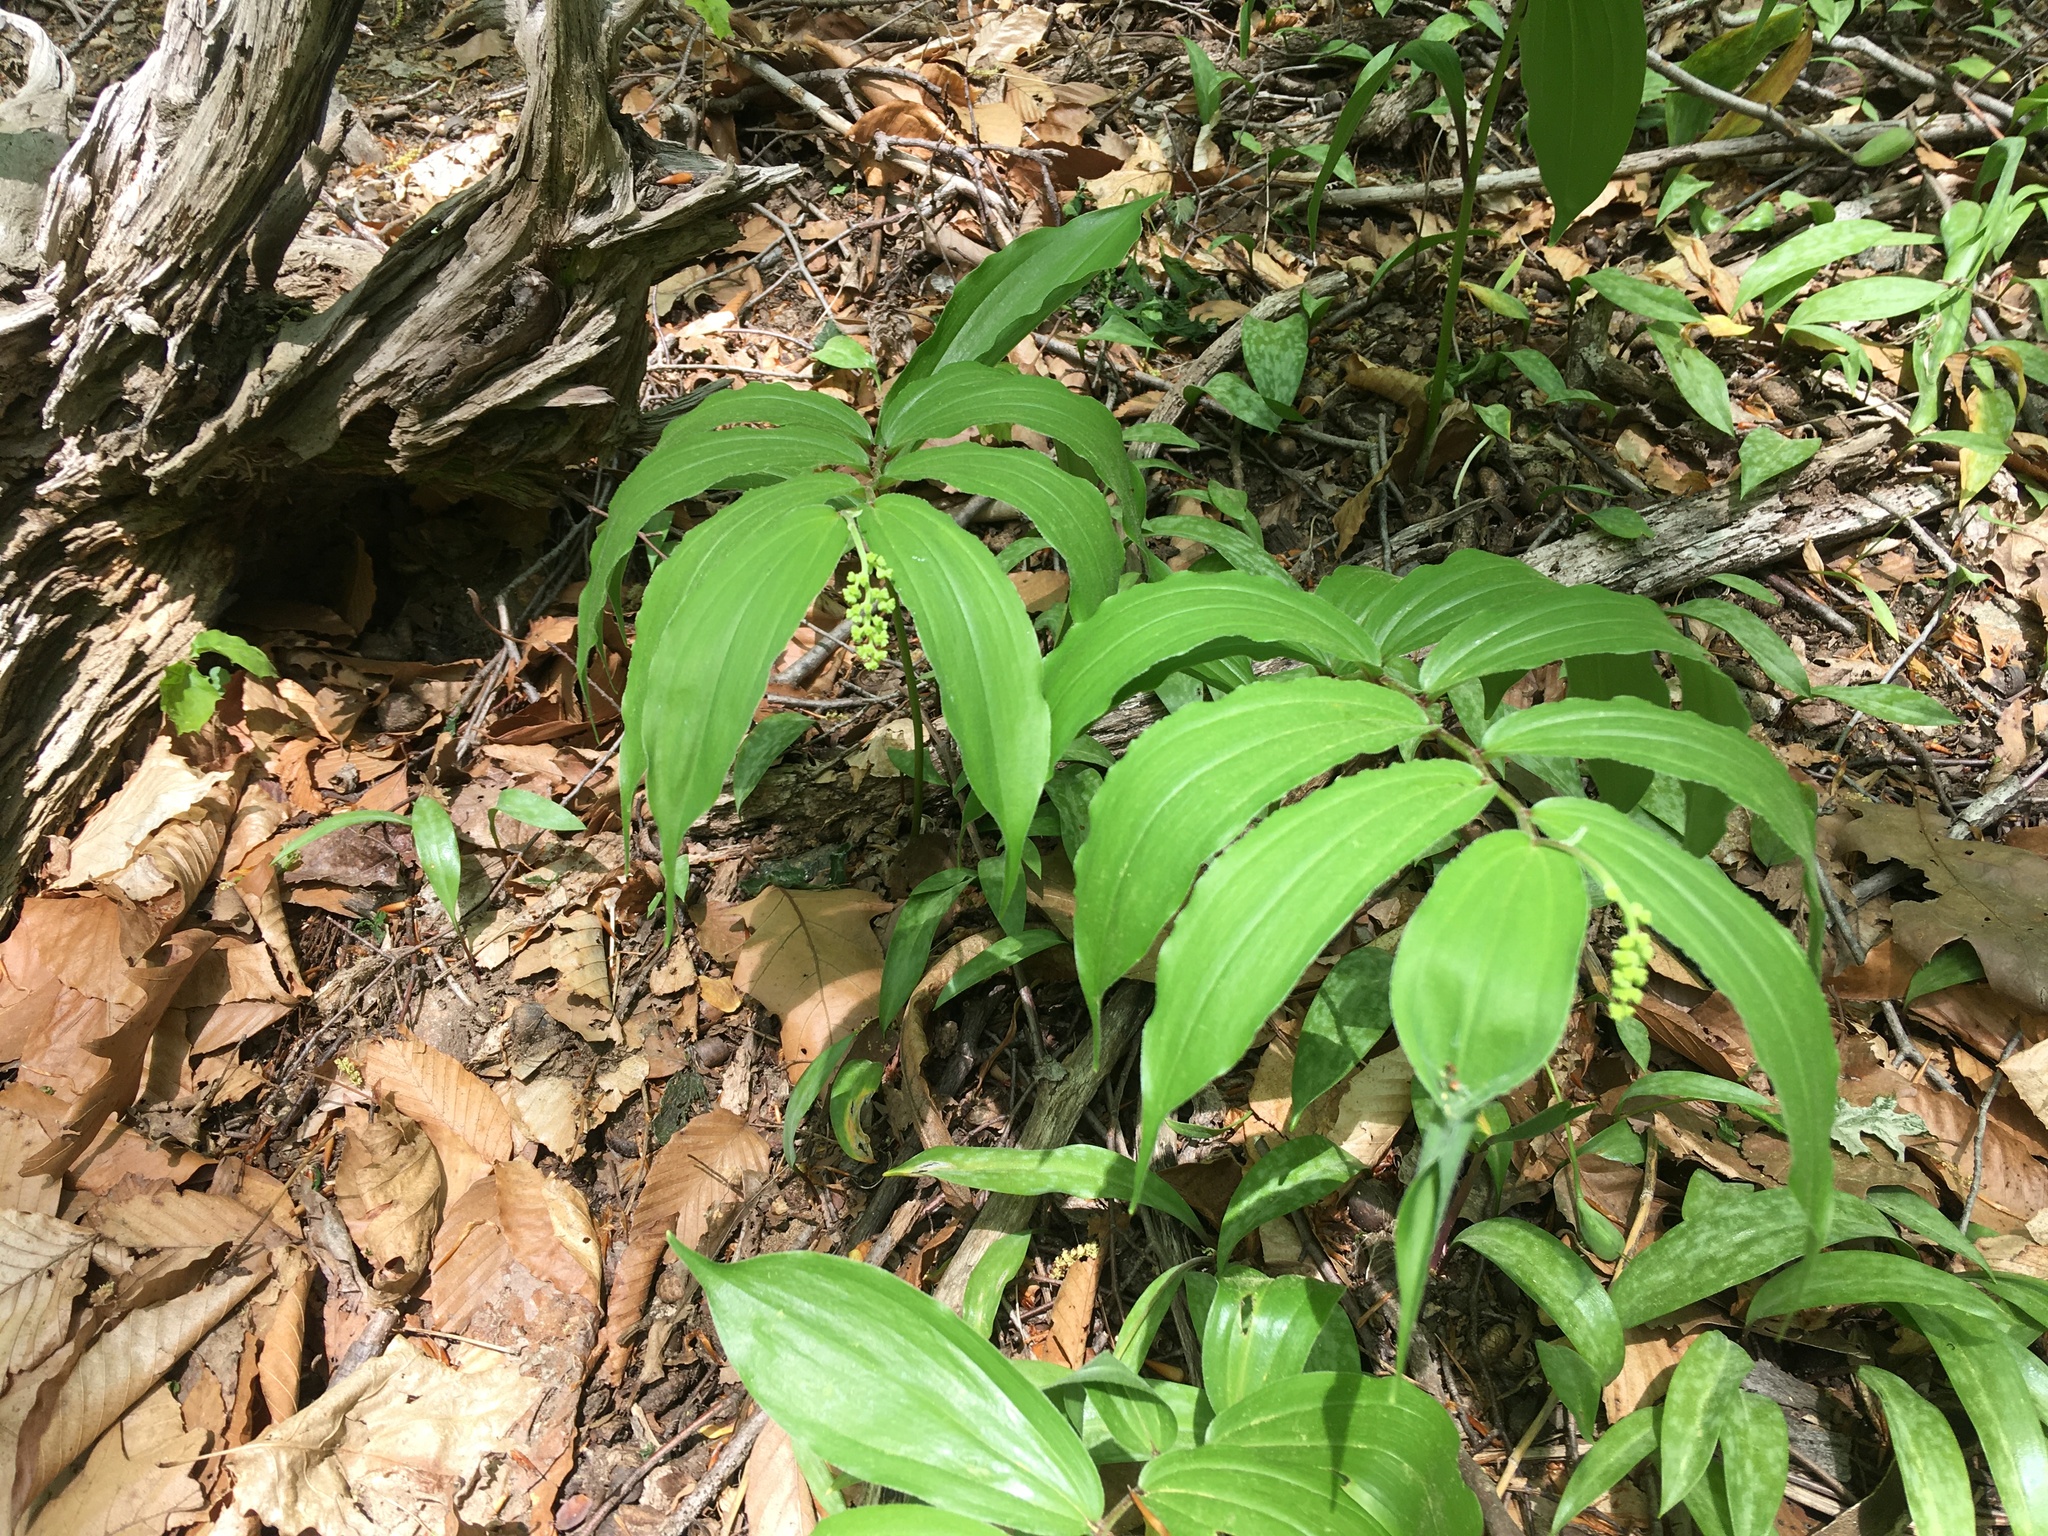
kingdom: Plantae
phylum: Tracheophyta
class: Liliopsida
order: Asparagales
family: Asparagaceae
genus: Maianthemum
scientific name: Maianthemum racemosum
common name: False spikenard
